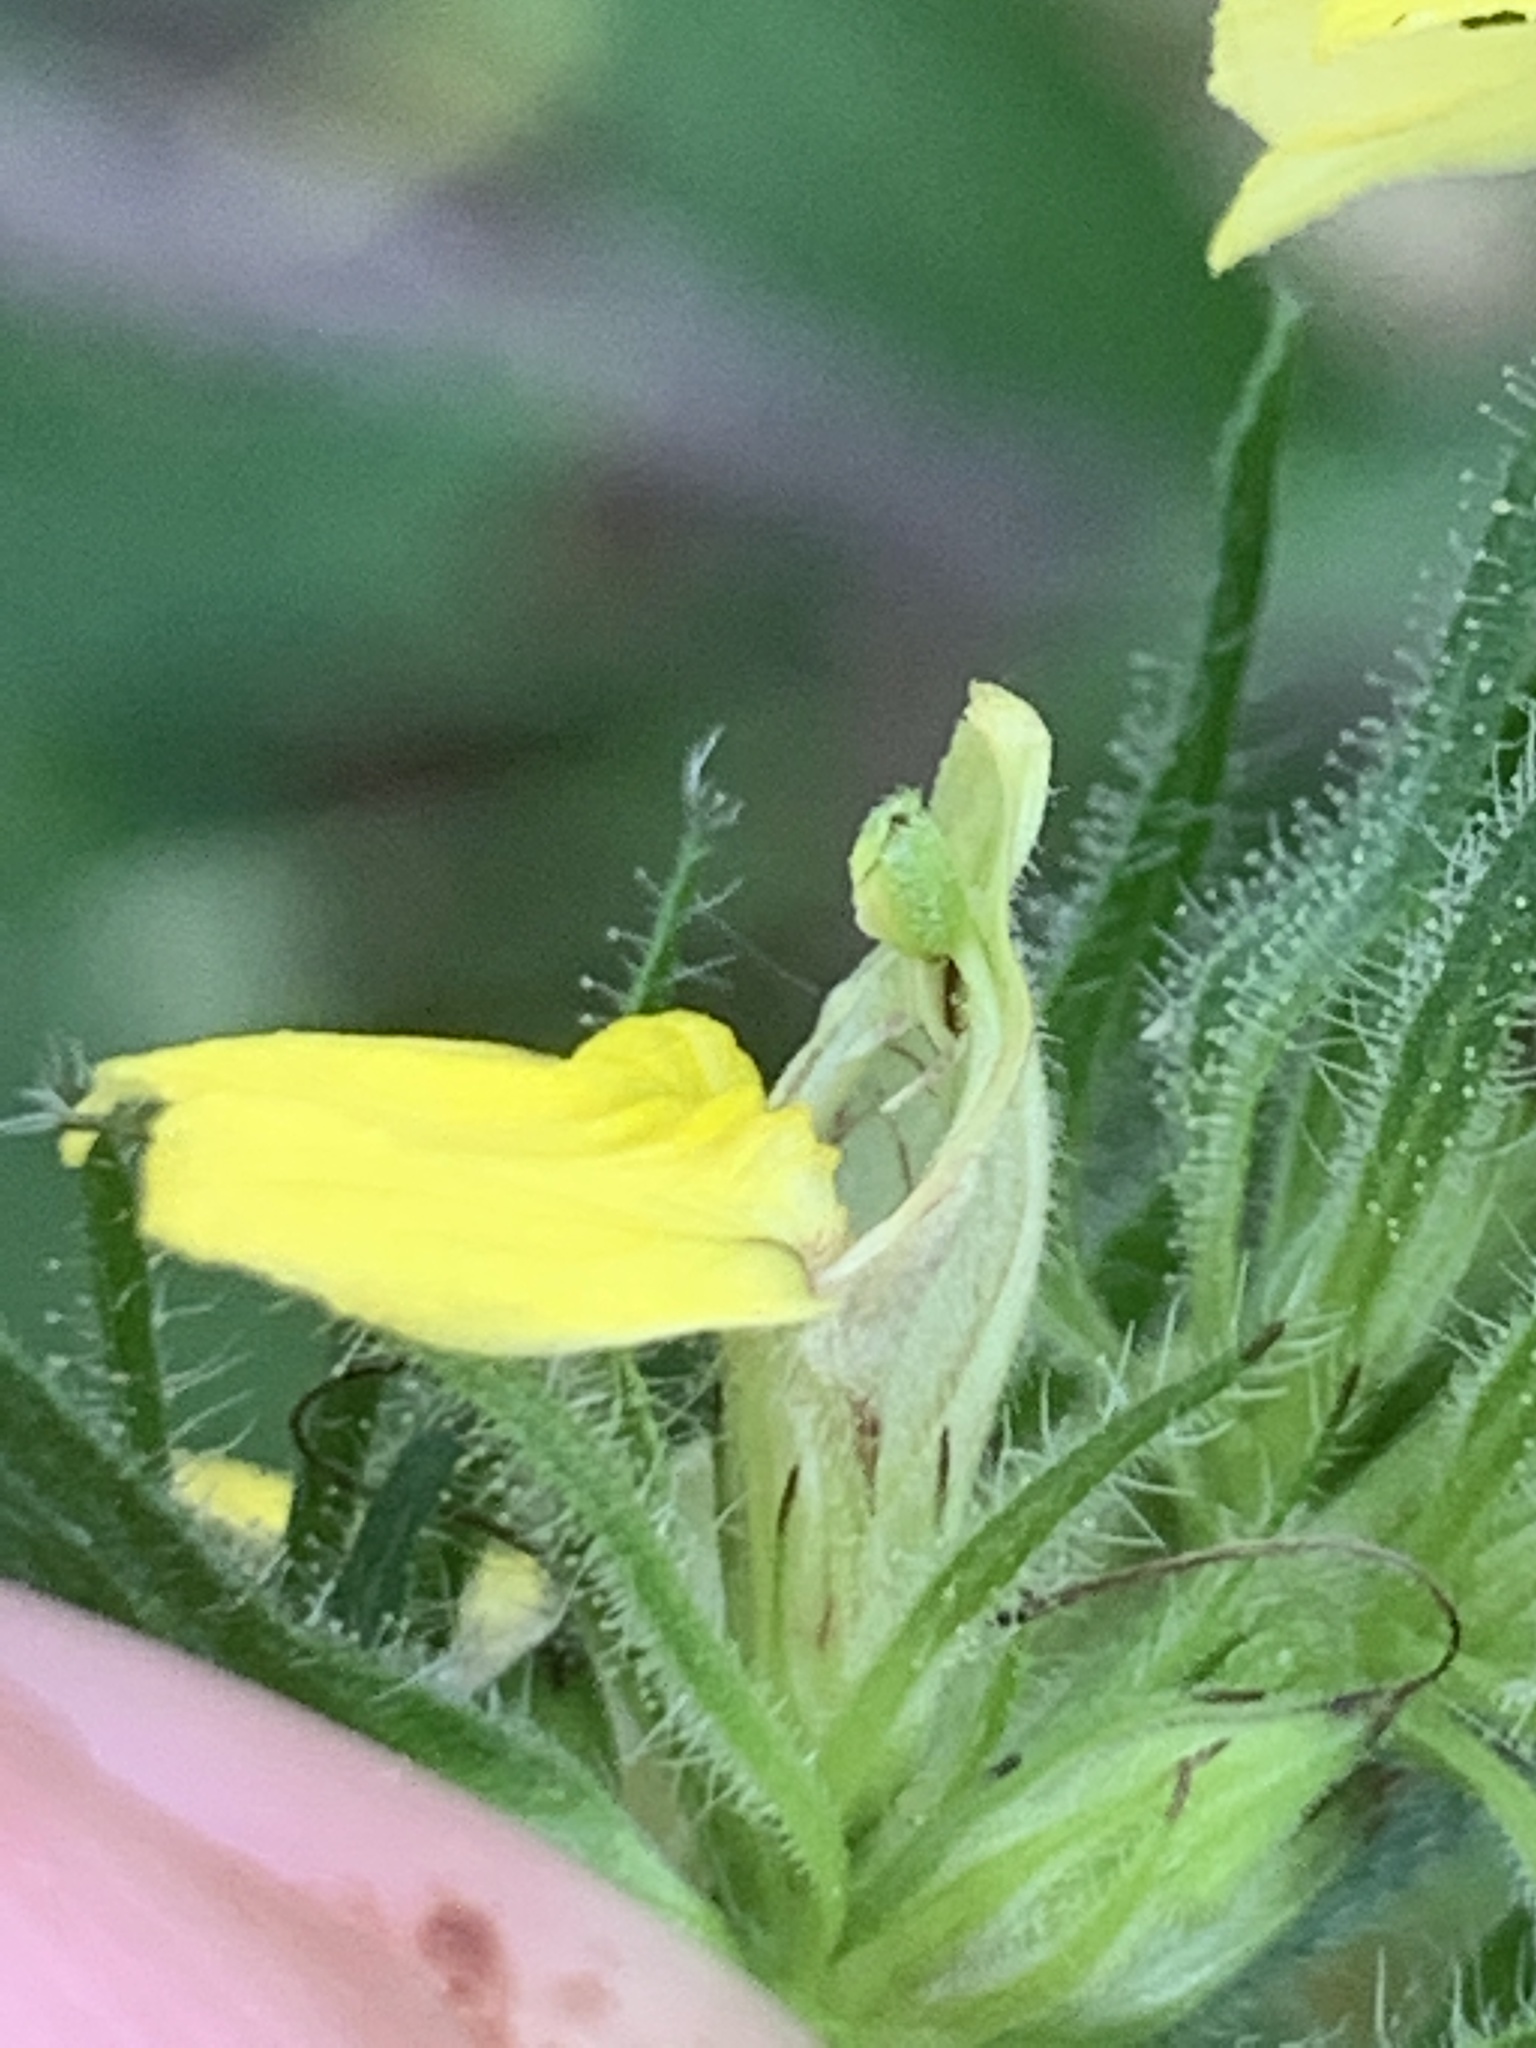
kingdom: Plantae
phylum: Tracheophyta
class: Magnoliopsida
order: Lamiales
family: Acanthaceae
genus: Justicia
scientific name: Justicia flava
